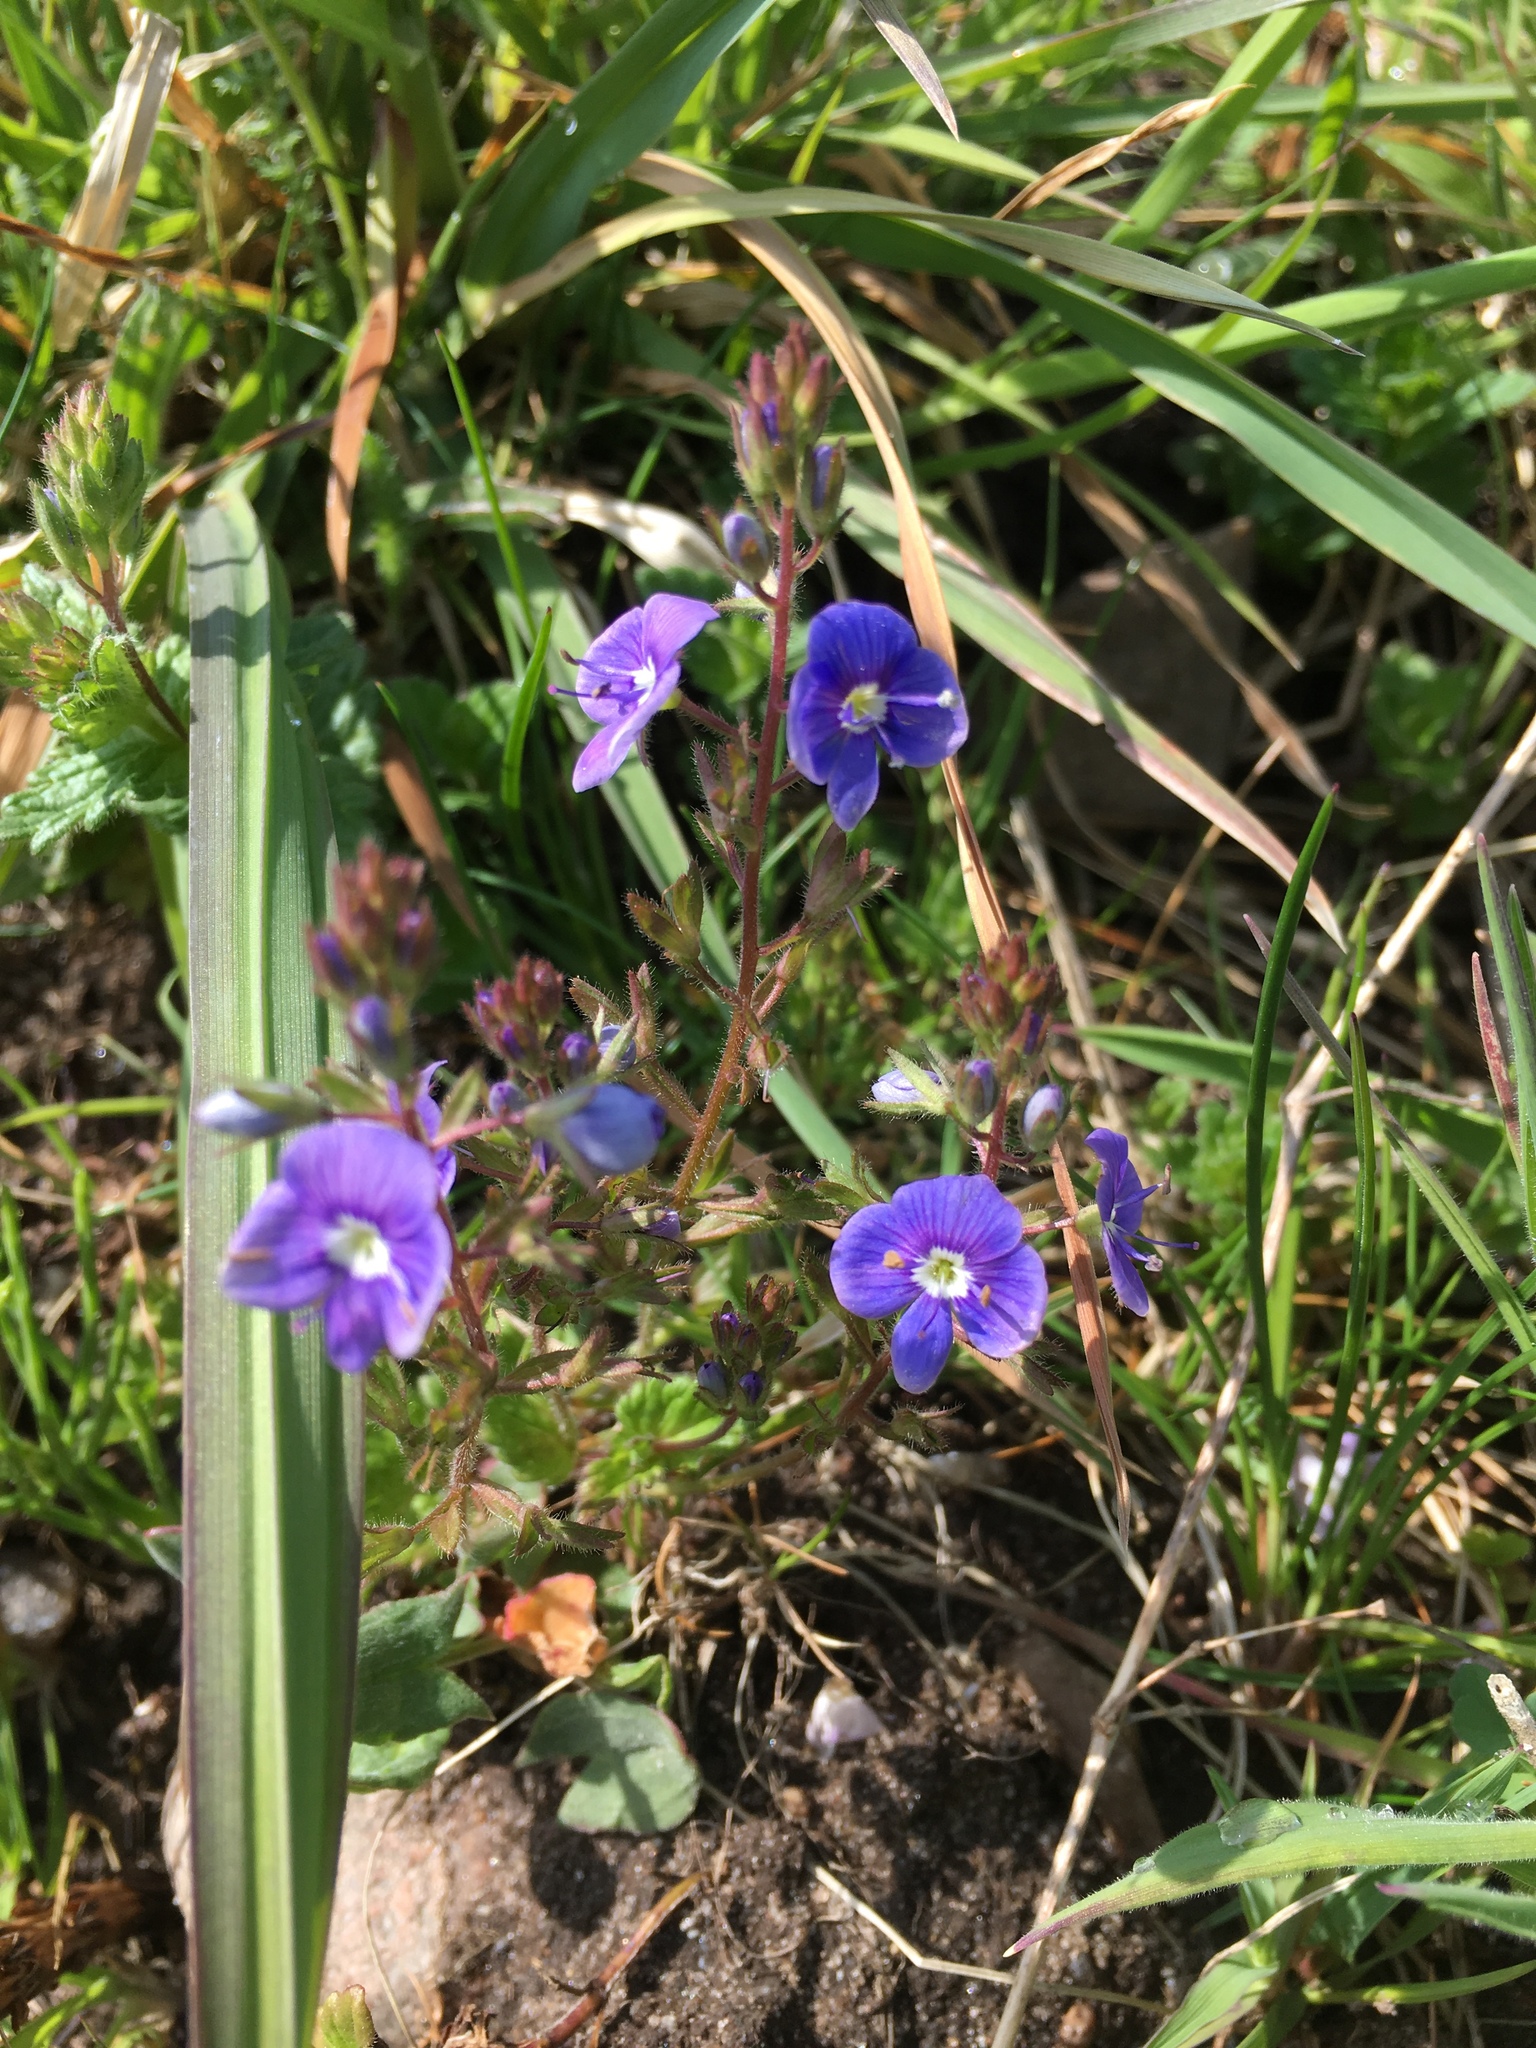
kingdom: Plantae
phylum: Tracheophyta
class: Magnoliopsida
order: Lamiales
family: Plantaginaceae
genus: Veronica
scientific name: Veronica chamaedrys
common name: Germander speedwell
